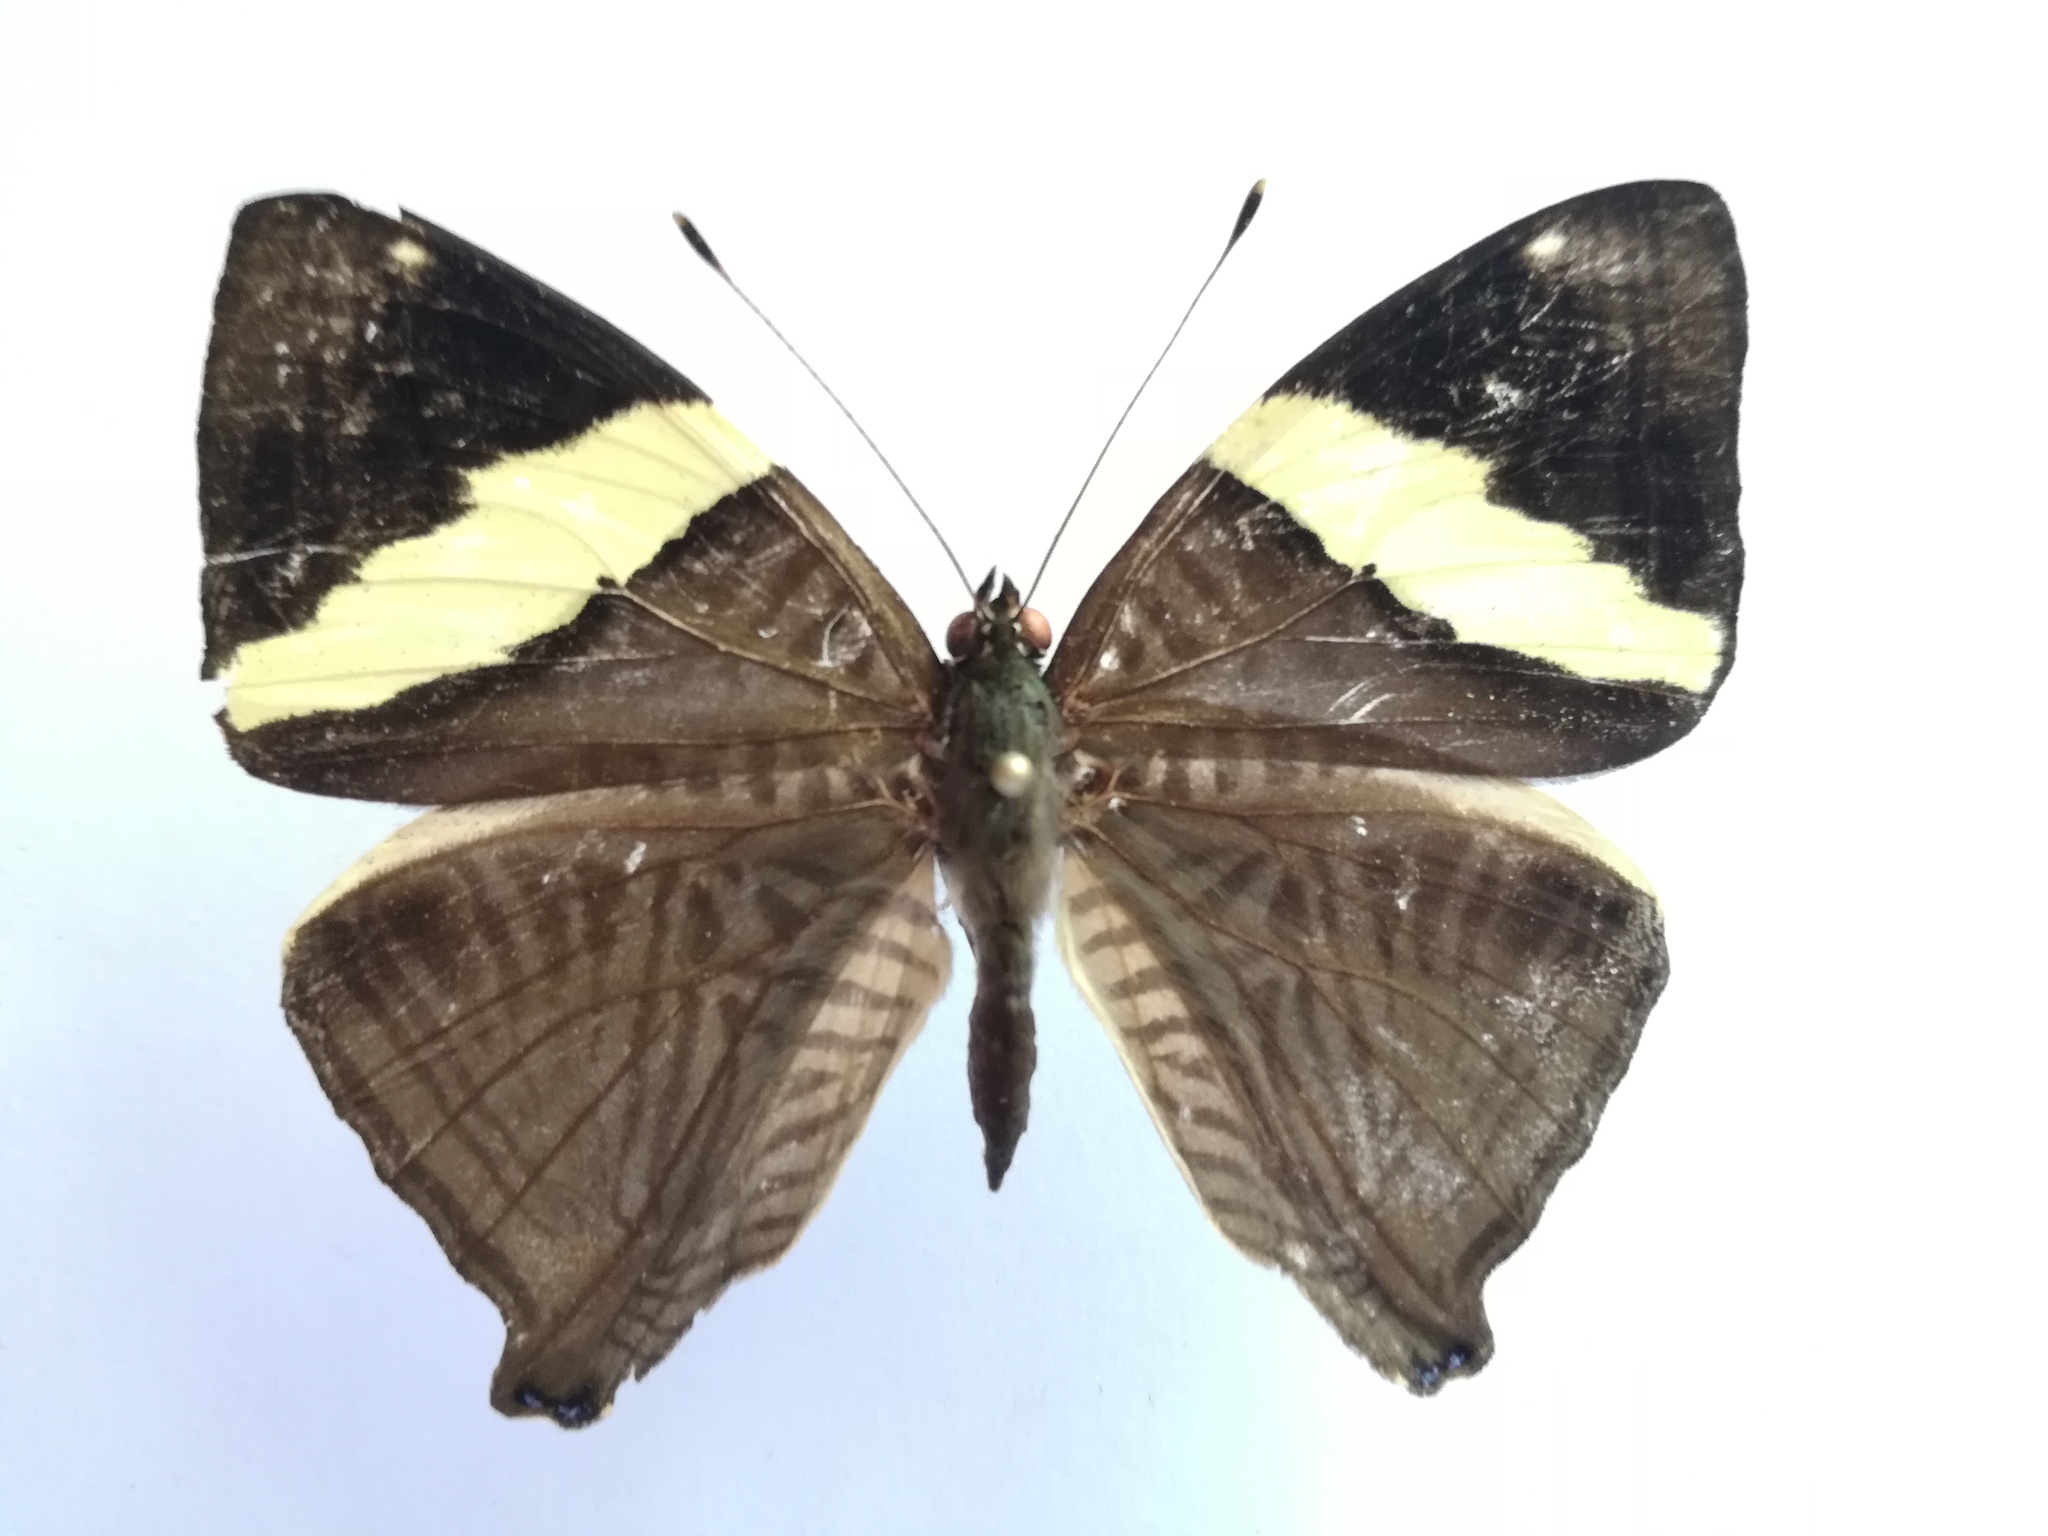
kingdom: Animalia
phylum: Arthropoda
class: Insecta
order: Lepidoptera
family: Nymphalidae
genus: Colobura
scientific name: Colobura dirce
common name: Dirce beauty
